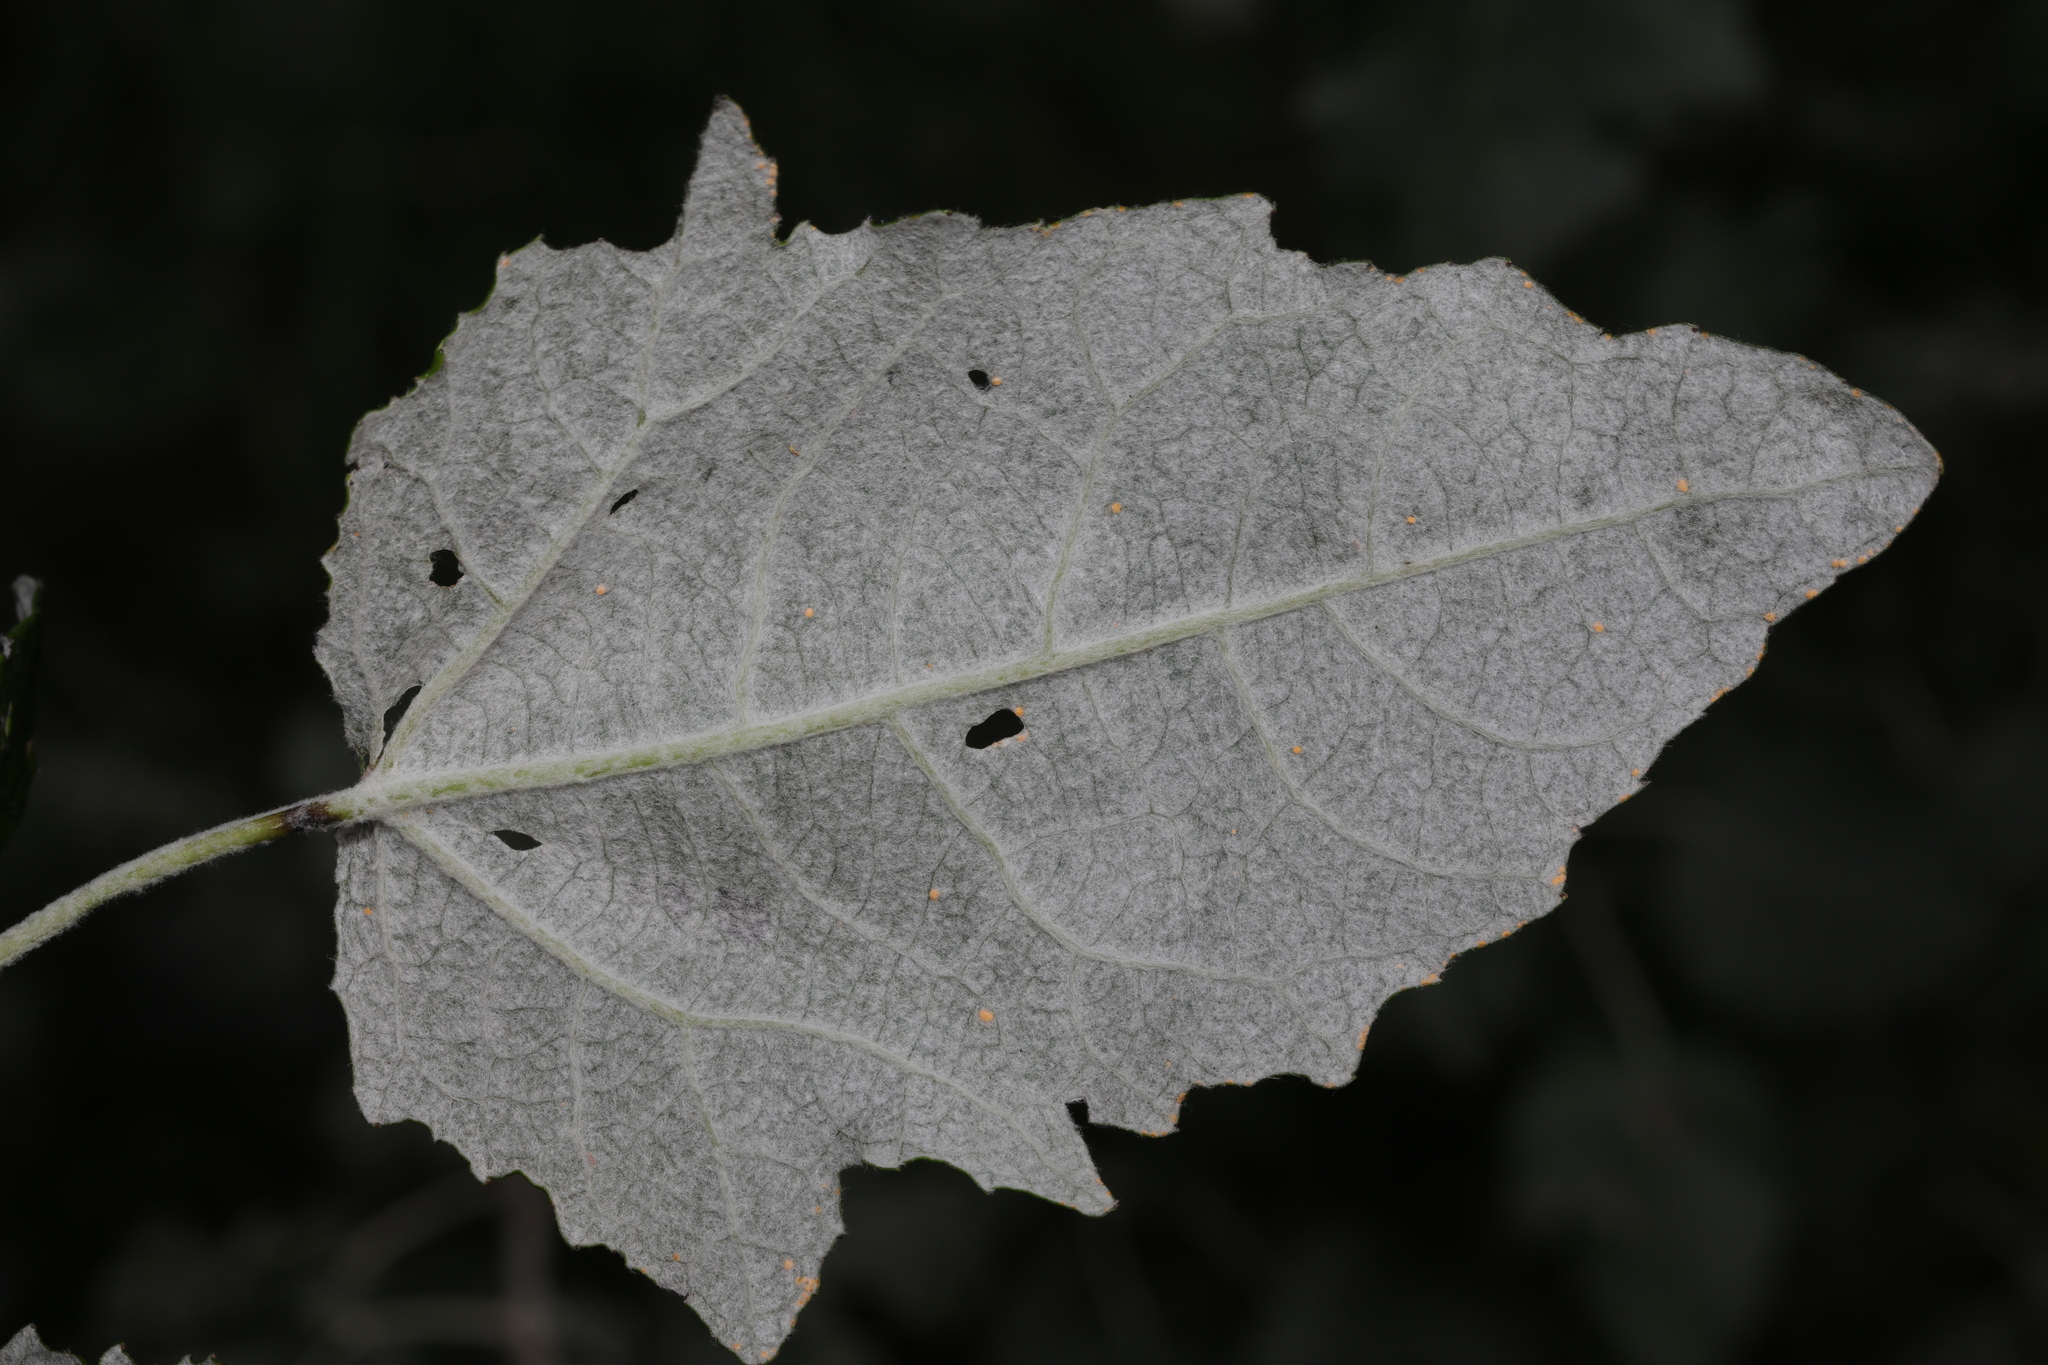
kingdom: Plantae
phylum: Tracheophyta
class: Magnoliopsida
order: Malpighiales
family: Salicaceae
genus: Populus
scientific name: Populus canescens
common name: Gray poplar
